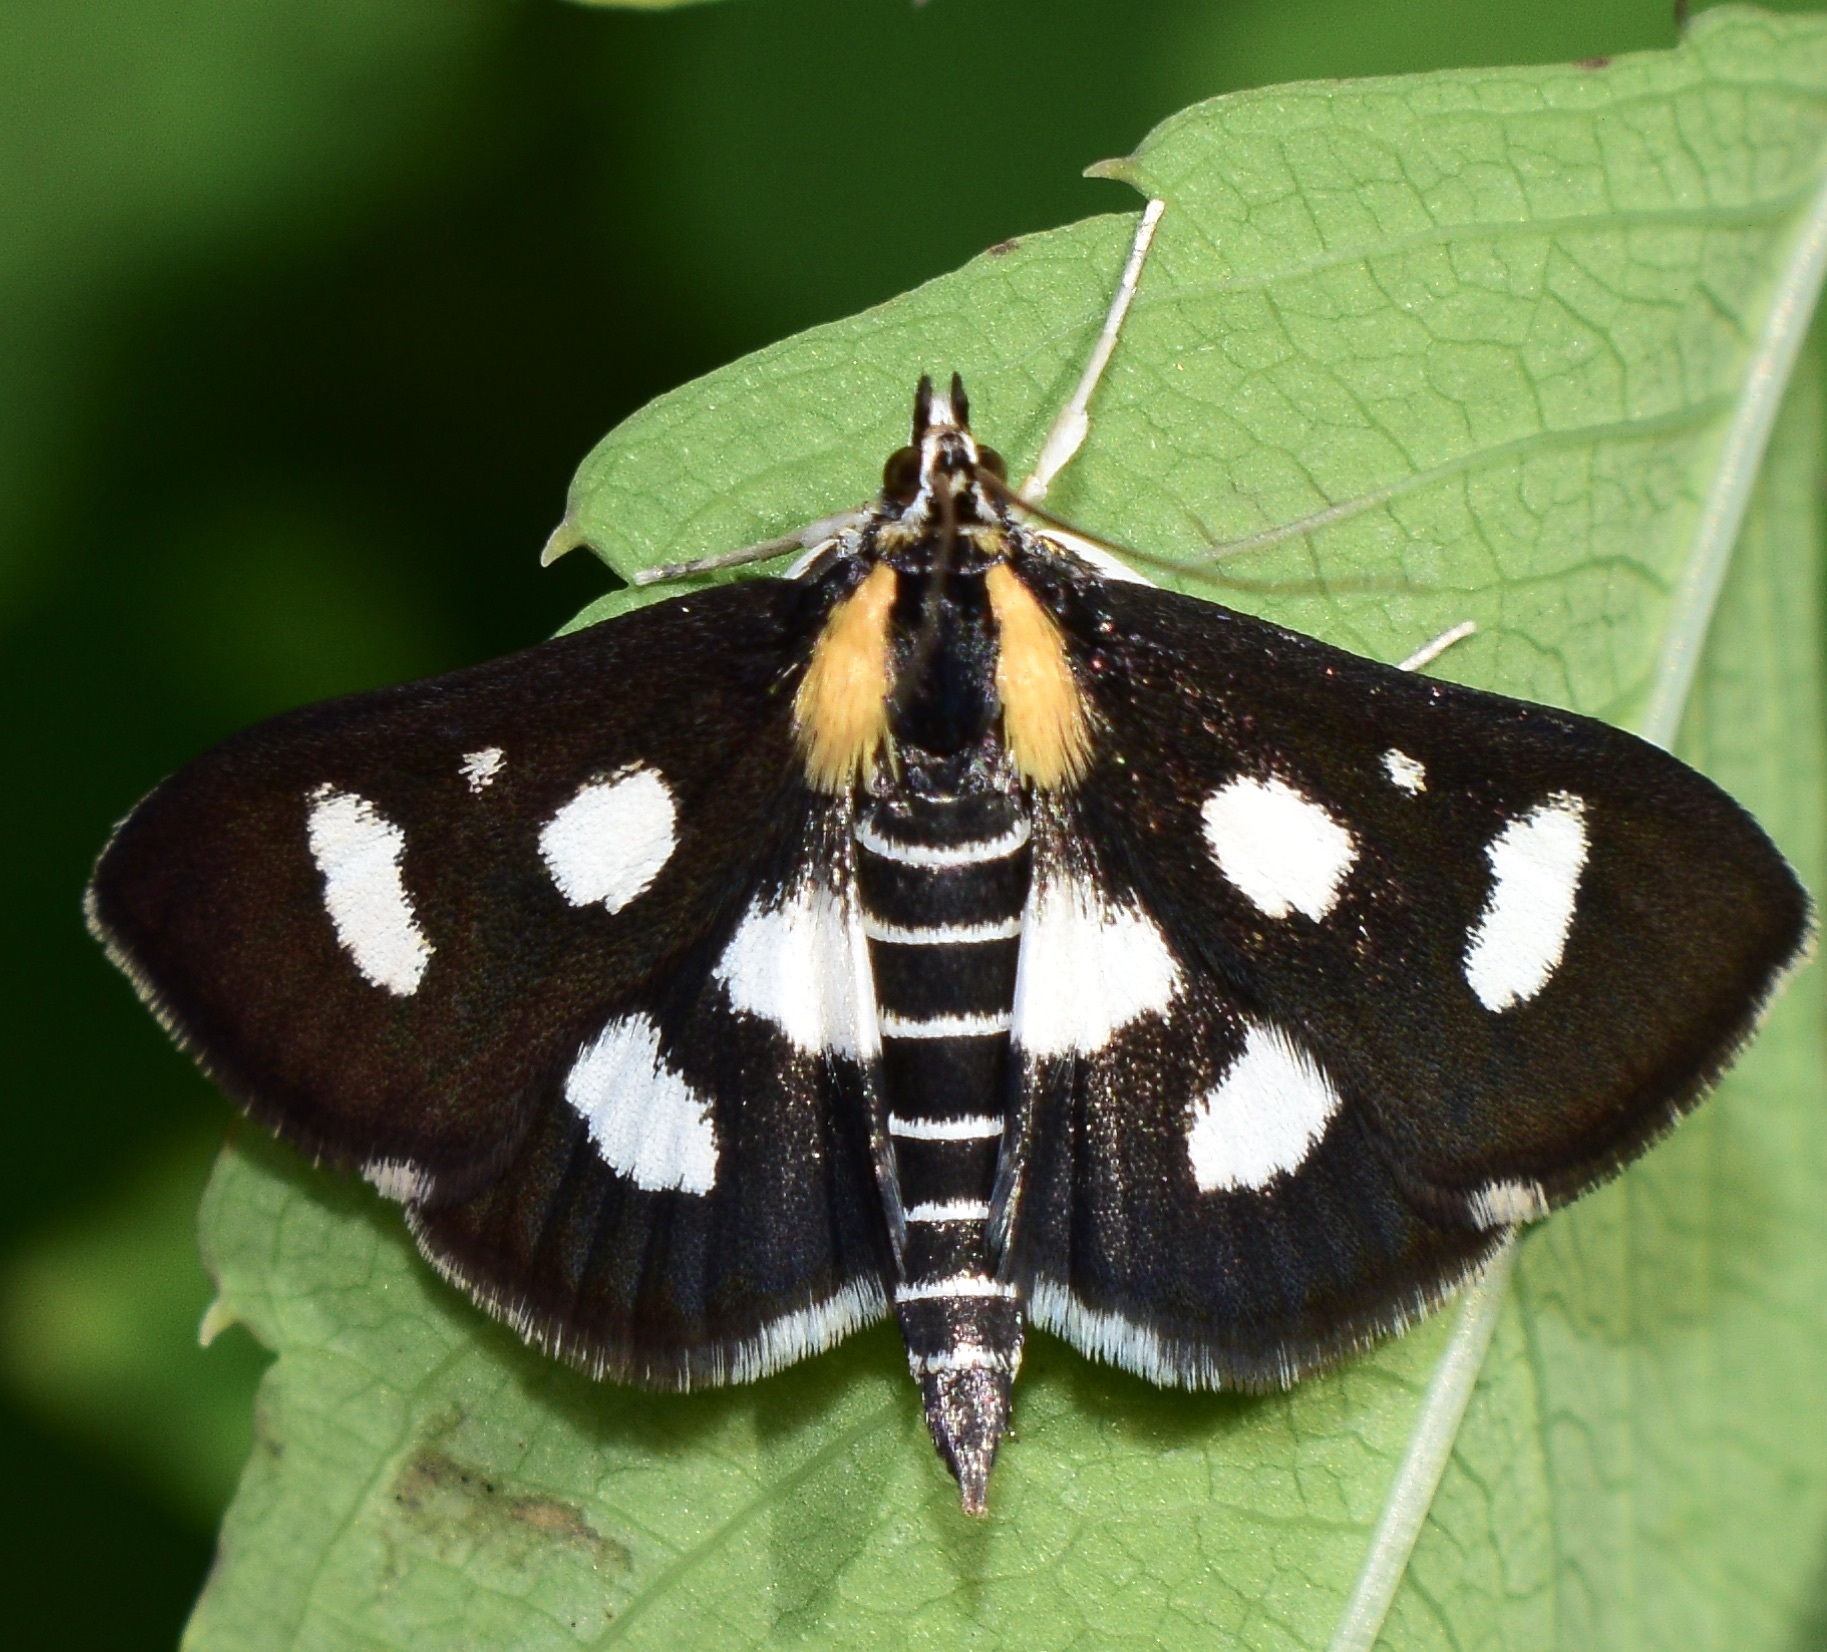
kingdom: Animalia
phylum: Arthropoda
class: Insecta
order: Lepidoptera
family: Crambidae
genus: Anania
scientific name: Anania funebris
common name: White-spotted sable moth
